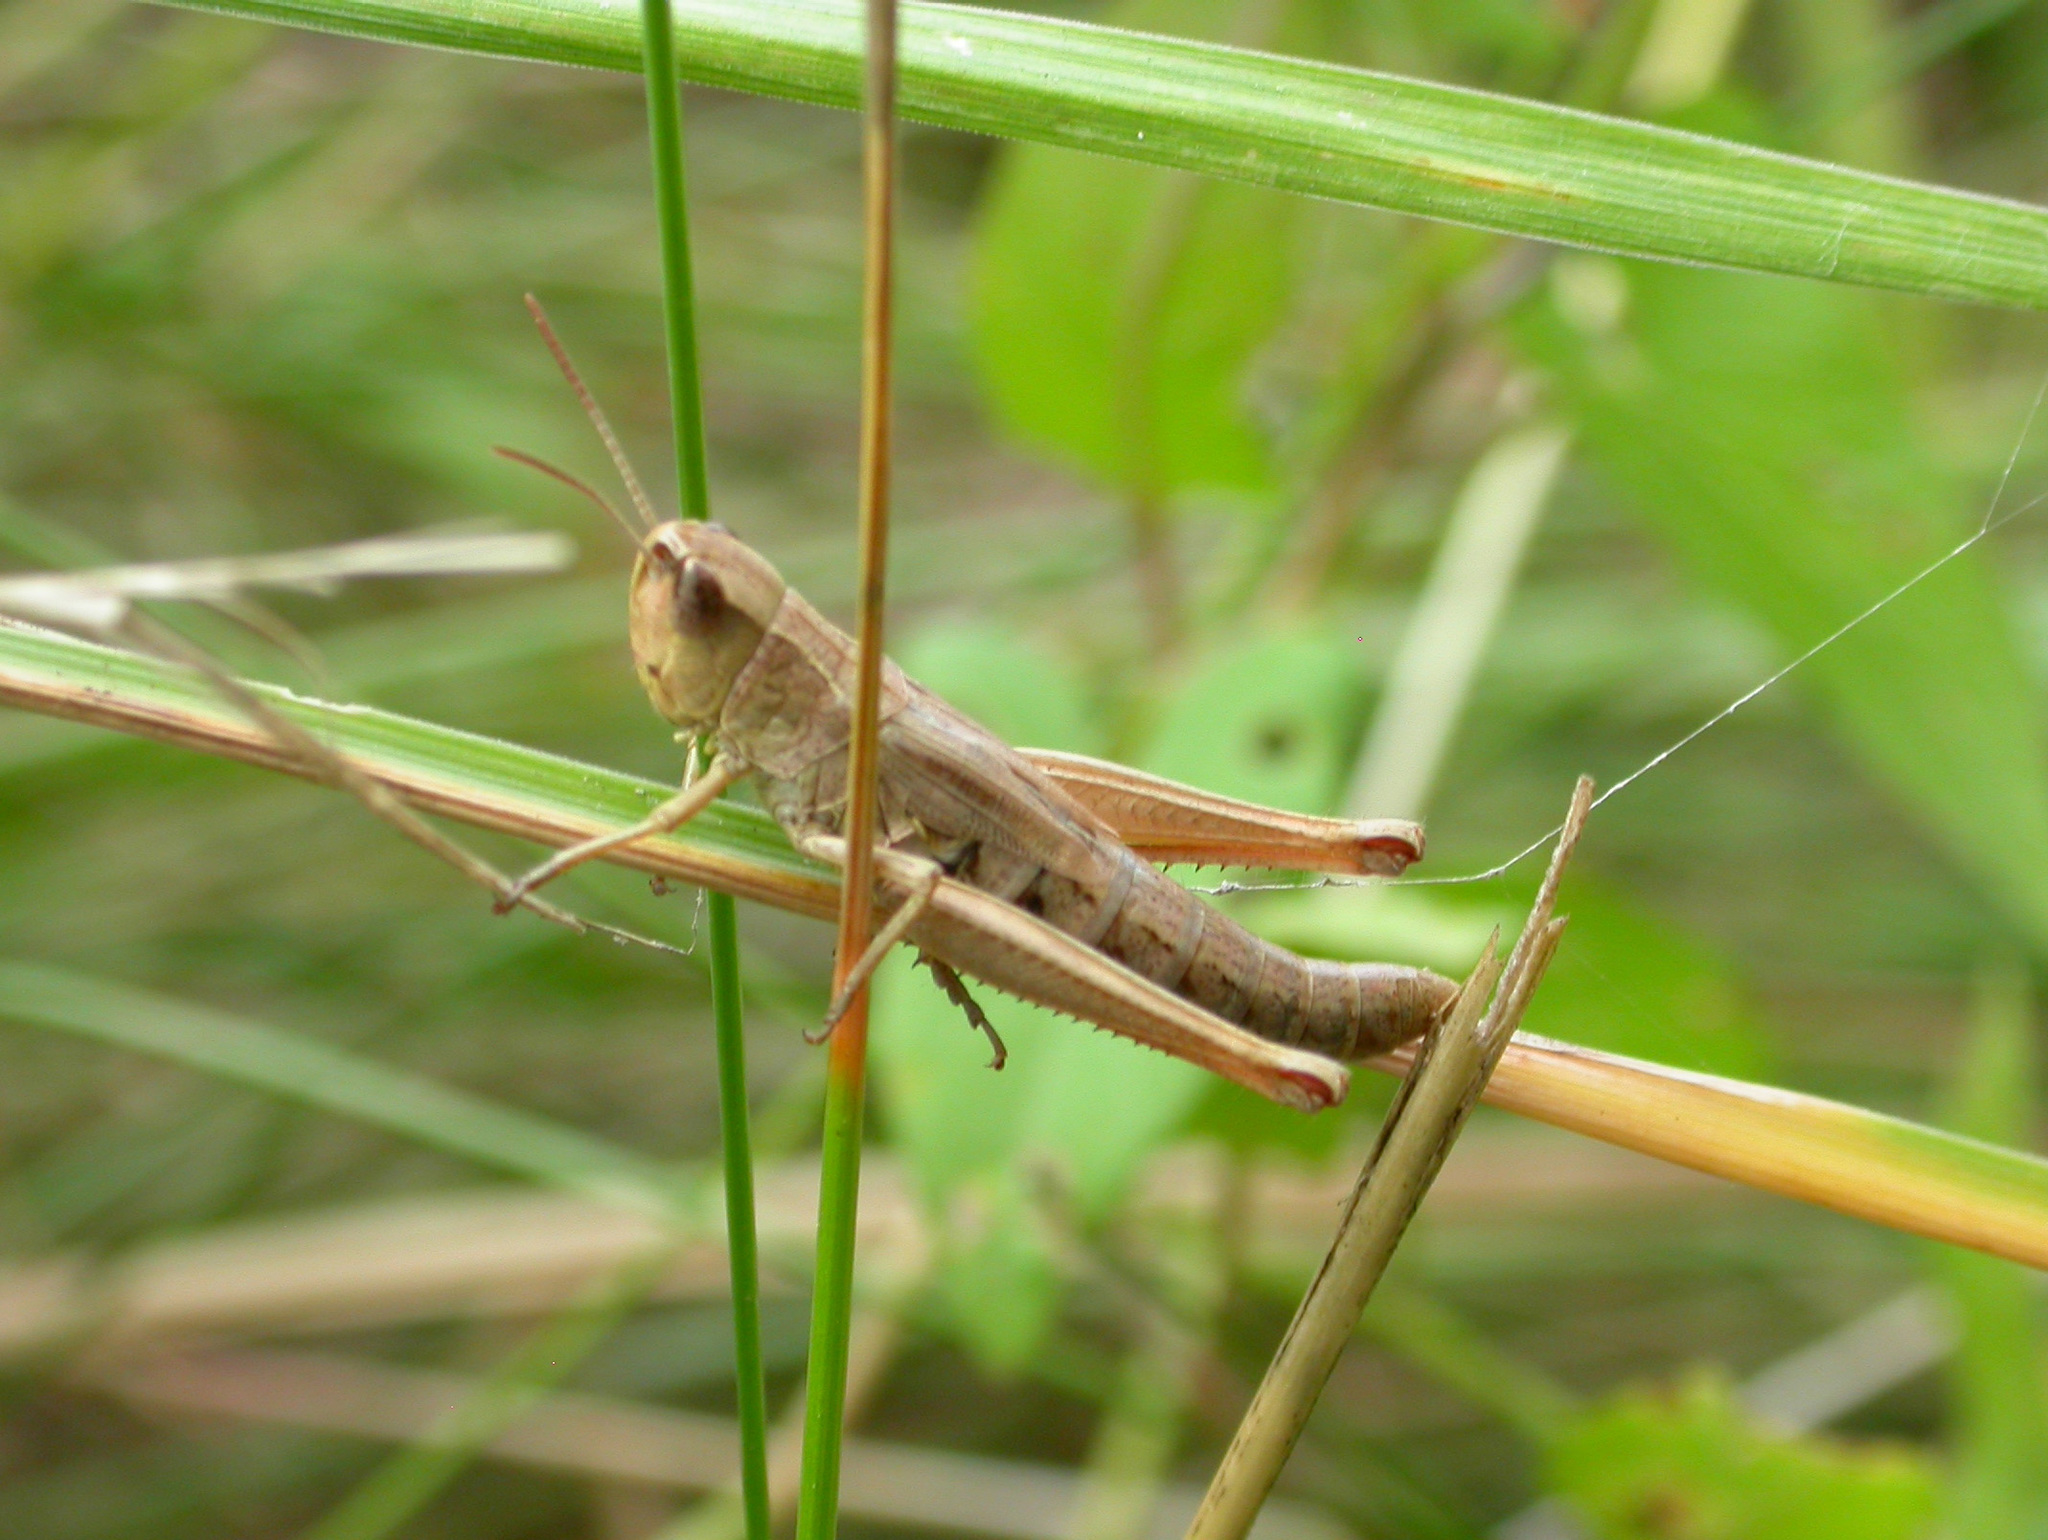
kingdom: Animalia
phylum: Arthropoda
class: Insecta
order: Orthoptera
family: Acrididae
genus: Chrysochraon
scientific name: Chrysochraon dispar
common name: Large gold grasshopper
